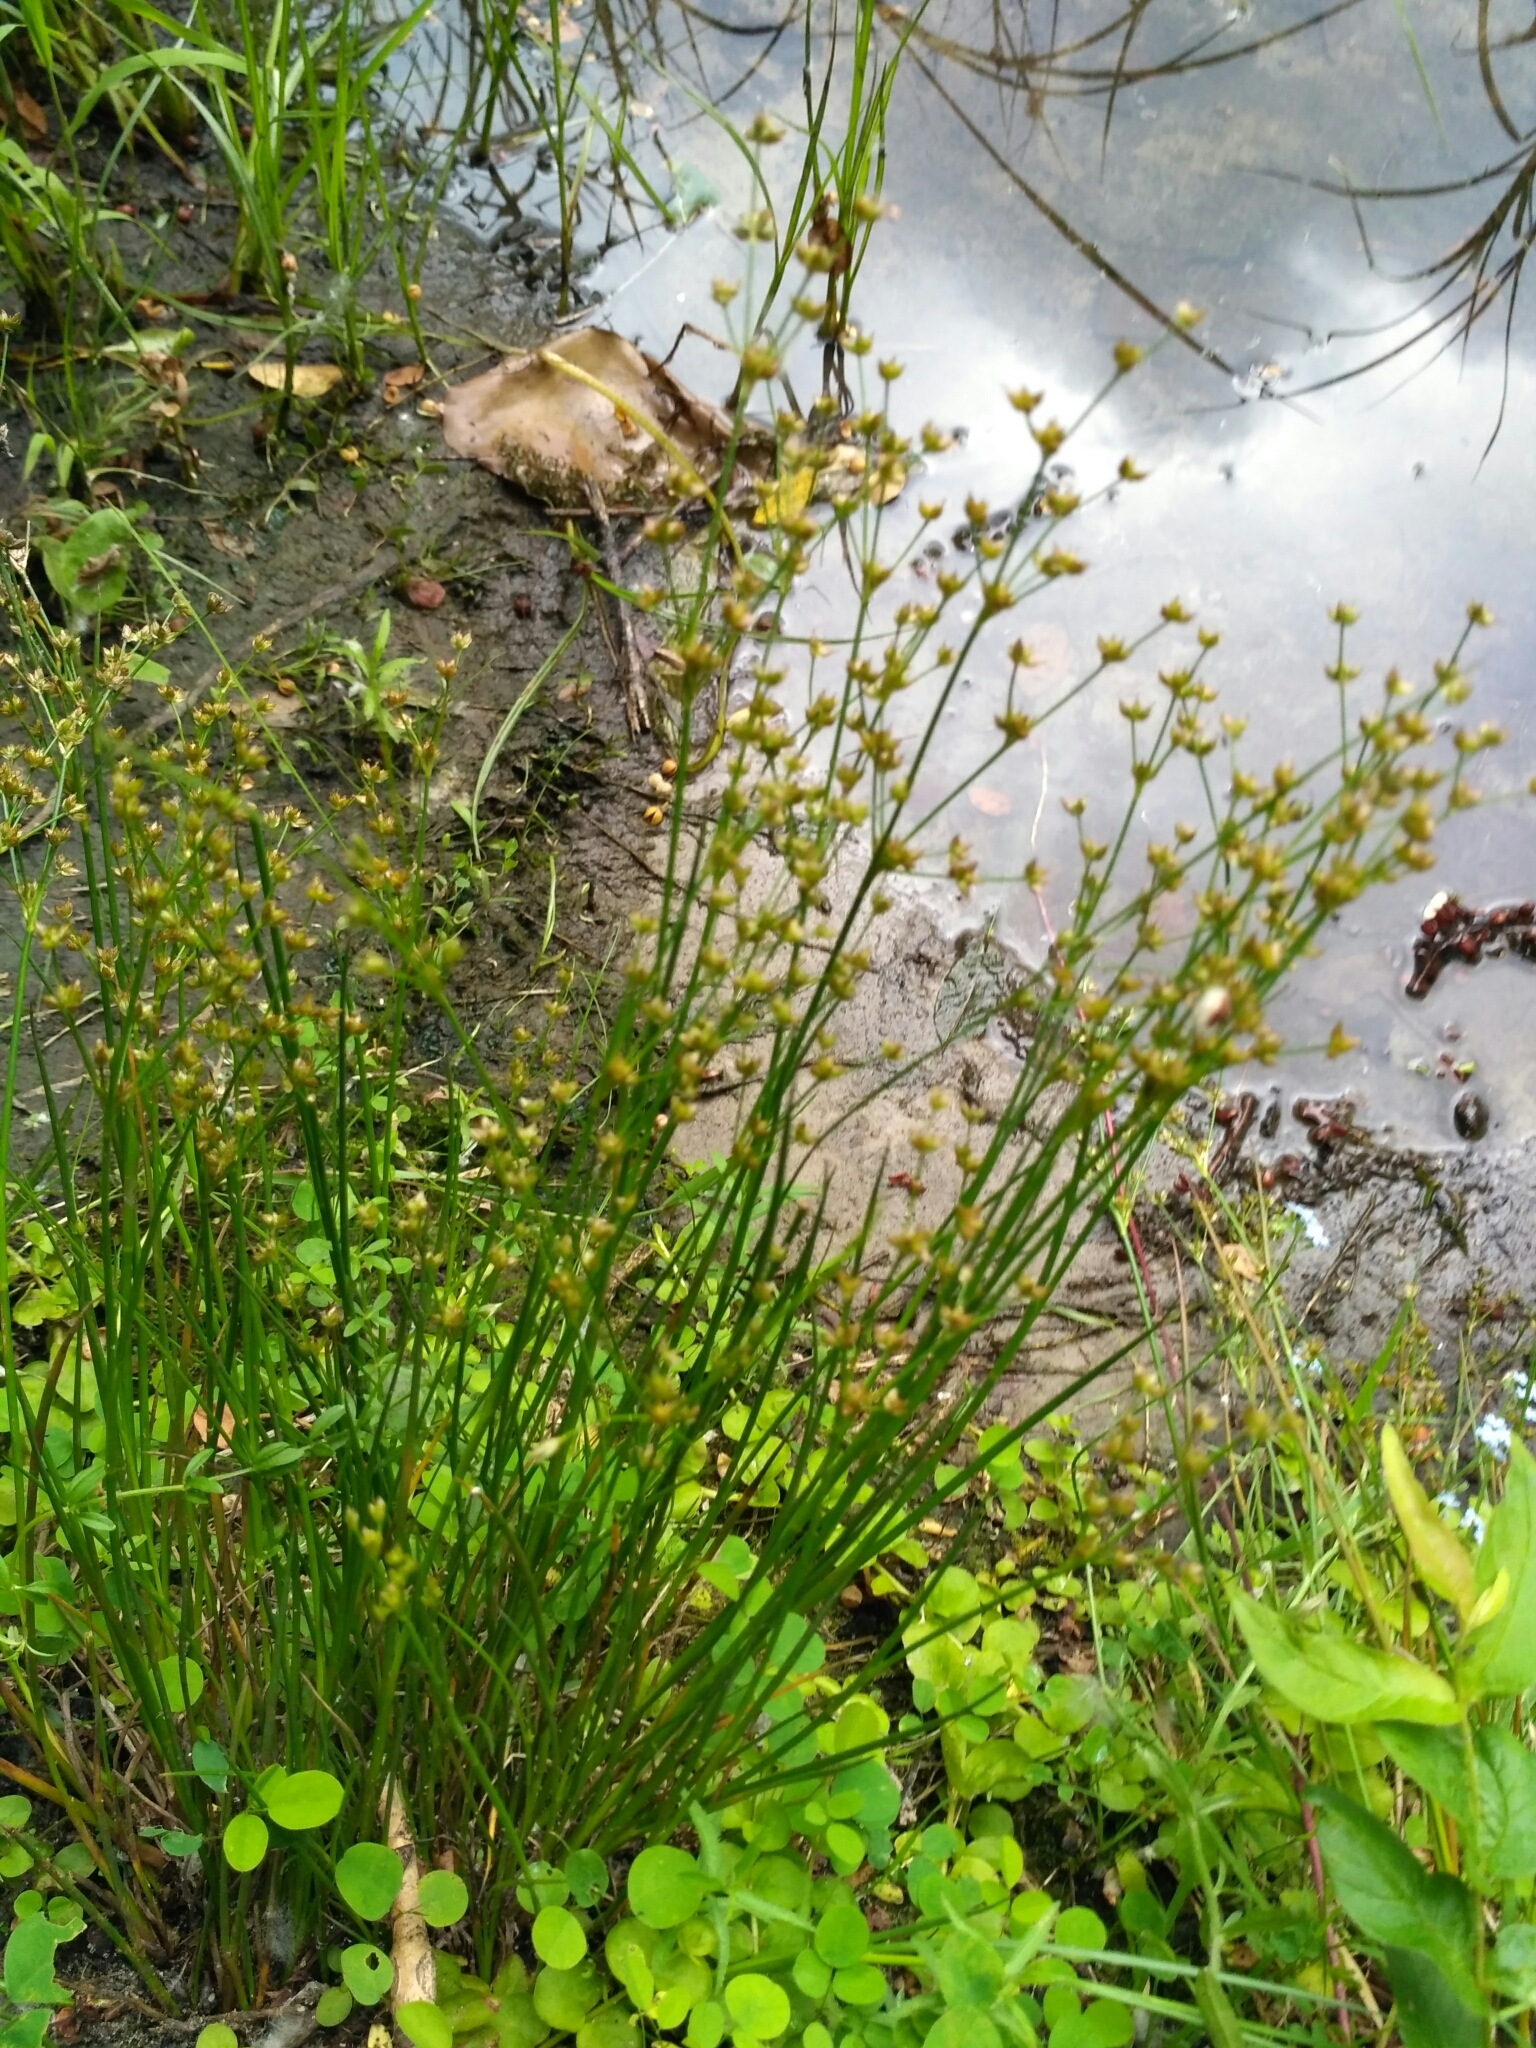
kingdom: Plantae
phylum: Tracheophyta
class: Liliopsida
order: Poales
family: Juncaceae
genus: Juncus
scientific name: Juncus articulatus
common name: Jointed rush
